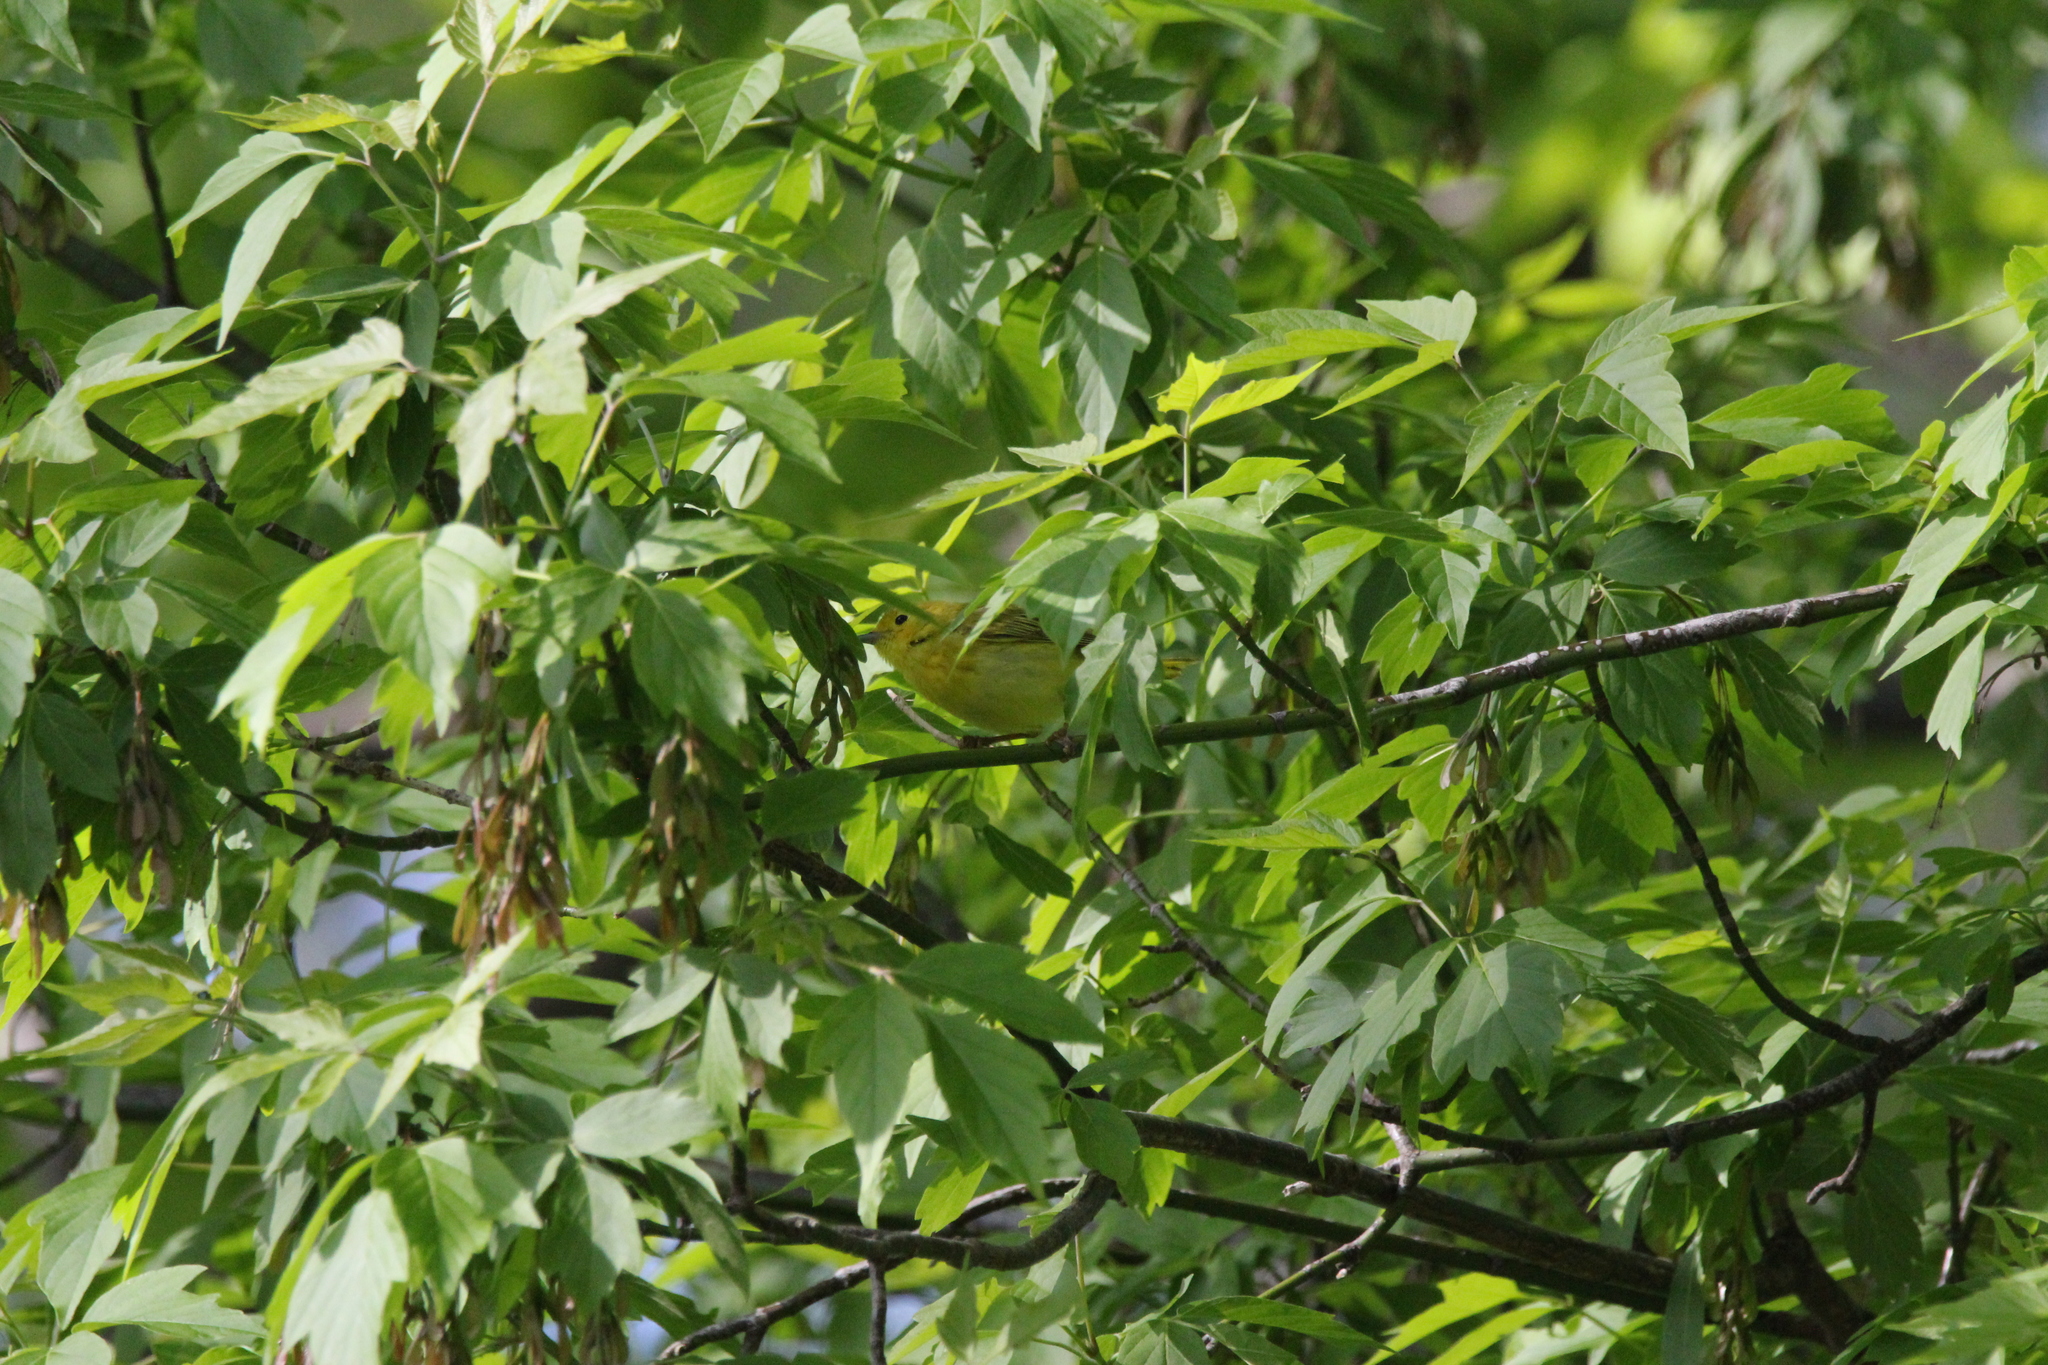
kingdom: Animalia
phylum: Chordata
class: Aves
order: Passeriformes
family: Parulidae
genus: Geothlypis
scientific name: Geothlypis trichas
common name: Common yellowthroat
